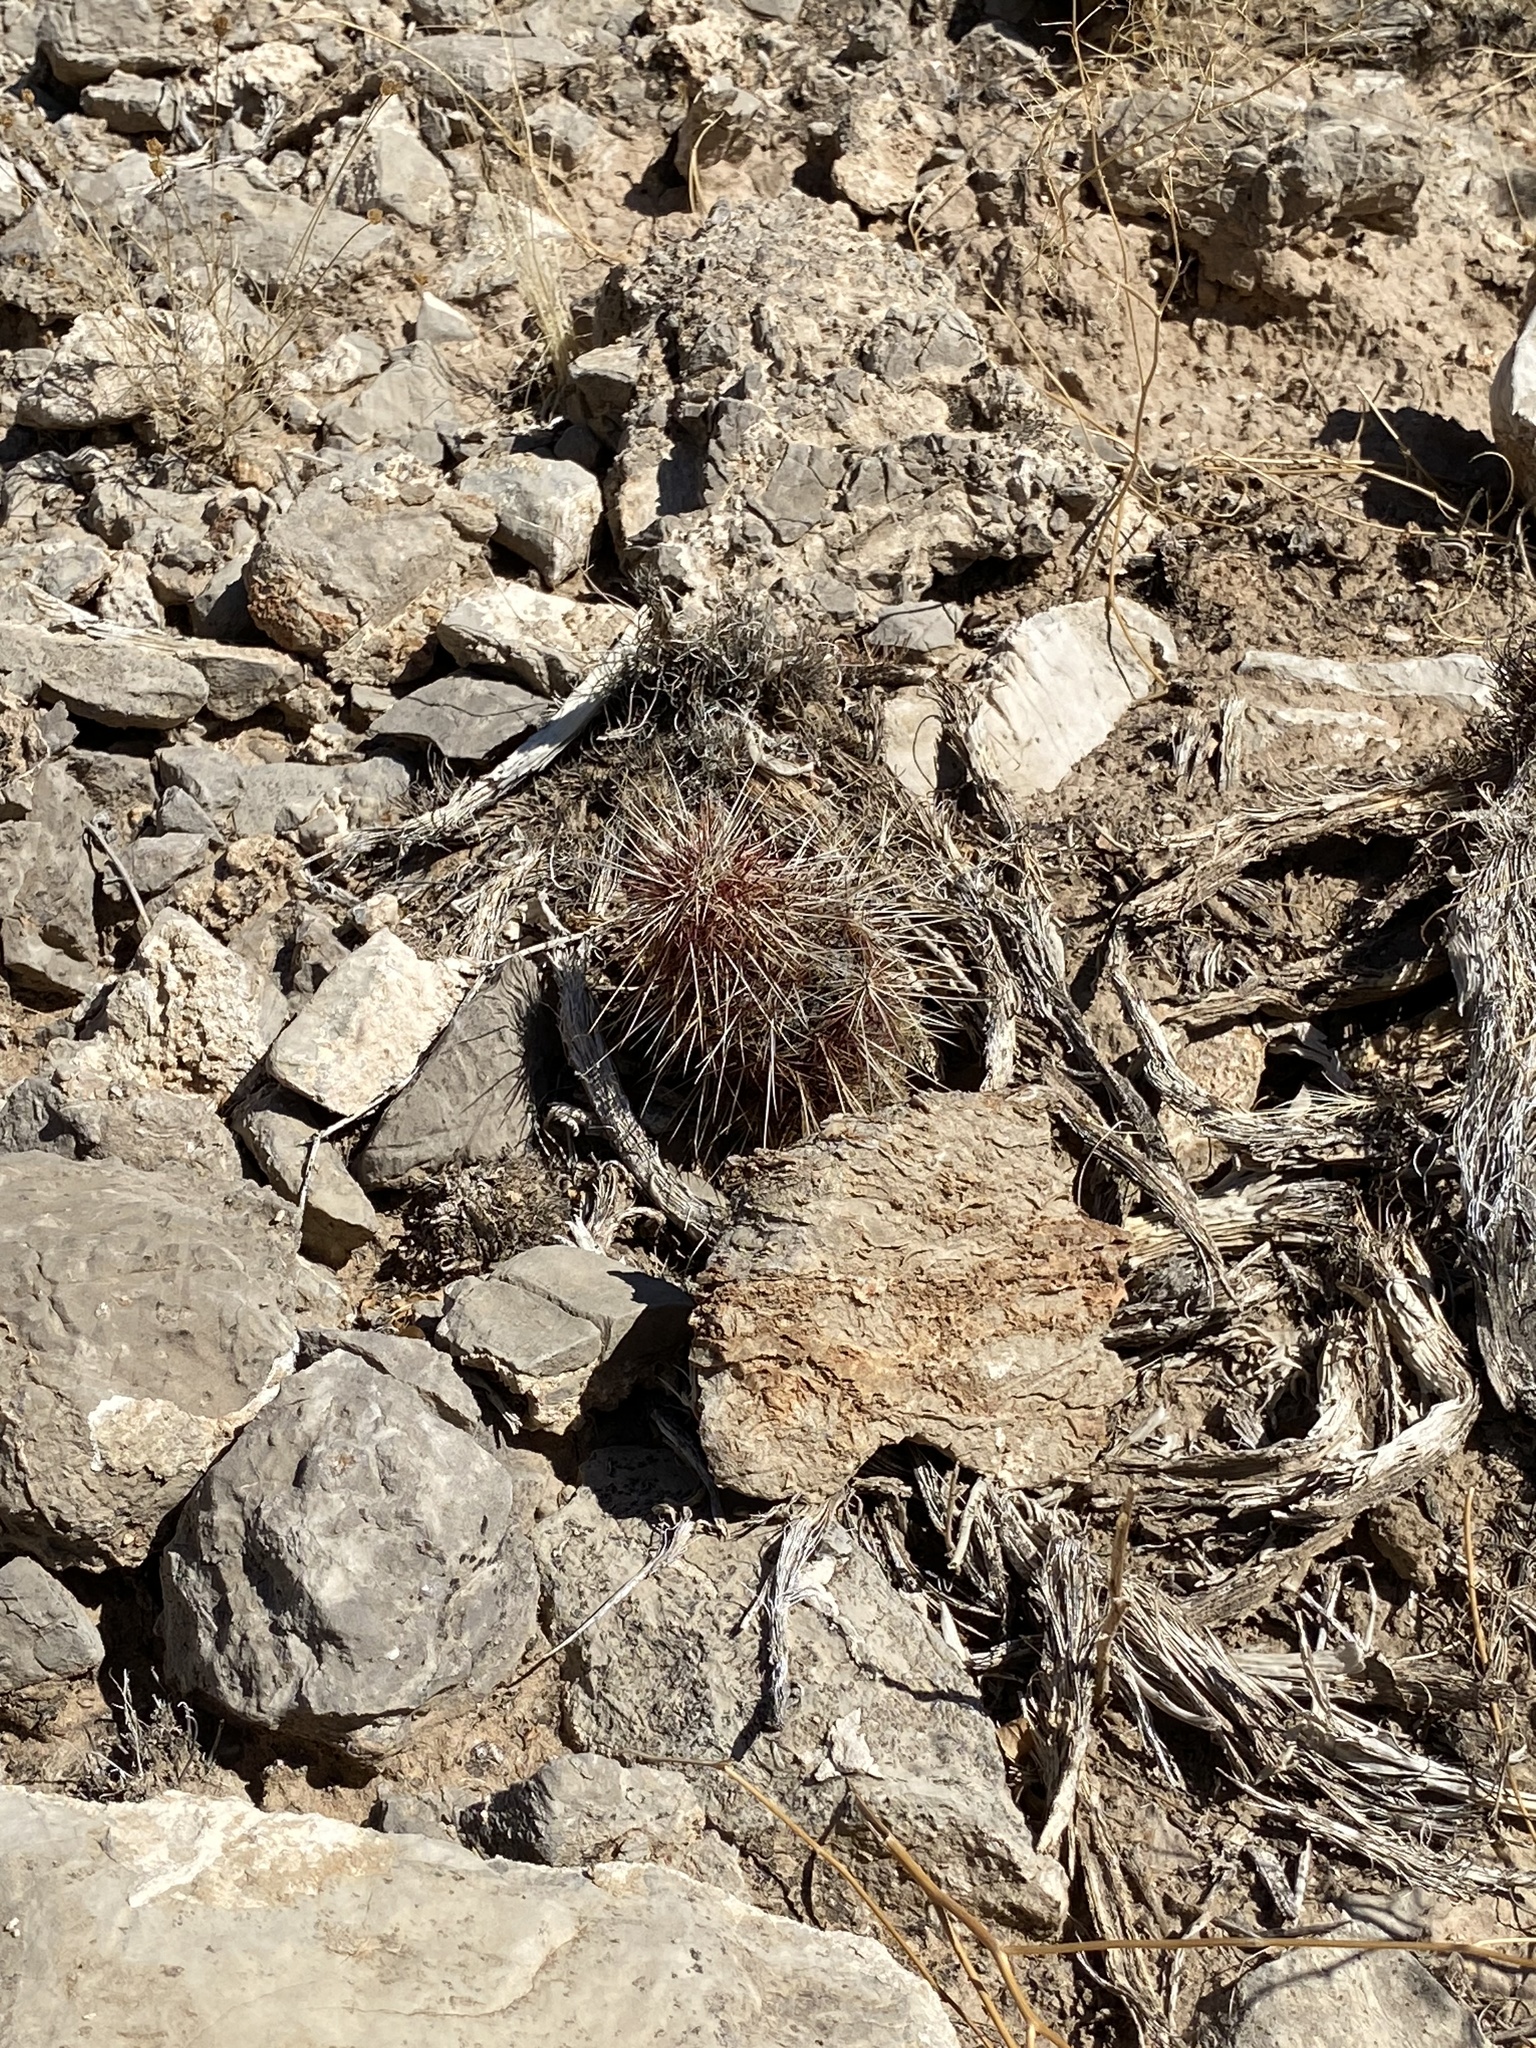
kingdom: Plantae
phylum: Tracheophyta
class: Magnoliopsida
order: Caryophyllales
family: Cactaceae
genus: Echinocereus
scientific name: Echinocereus viridiflorus
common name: Nylon hedgehog cactus
